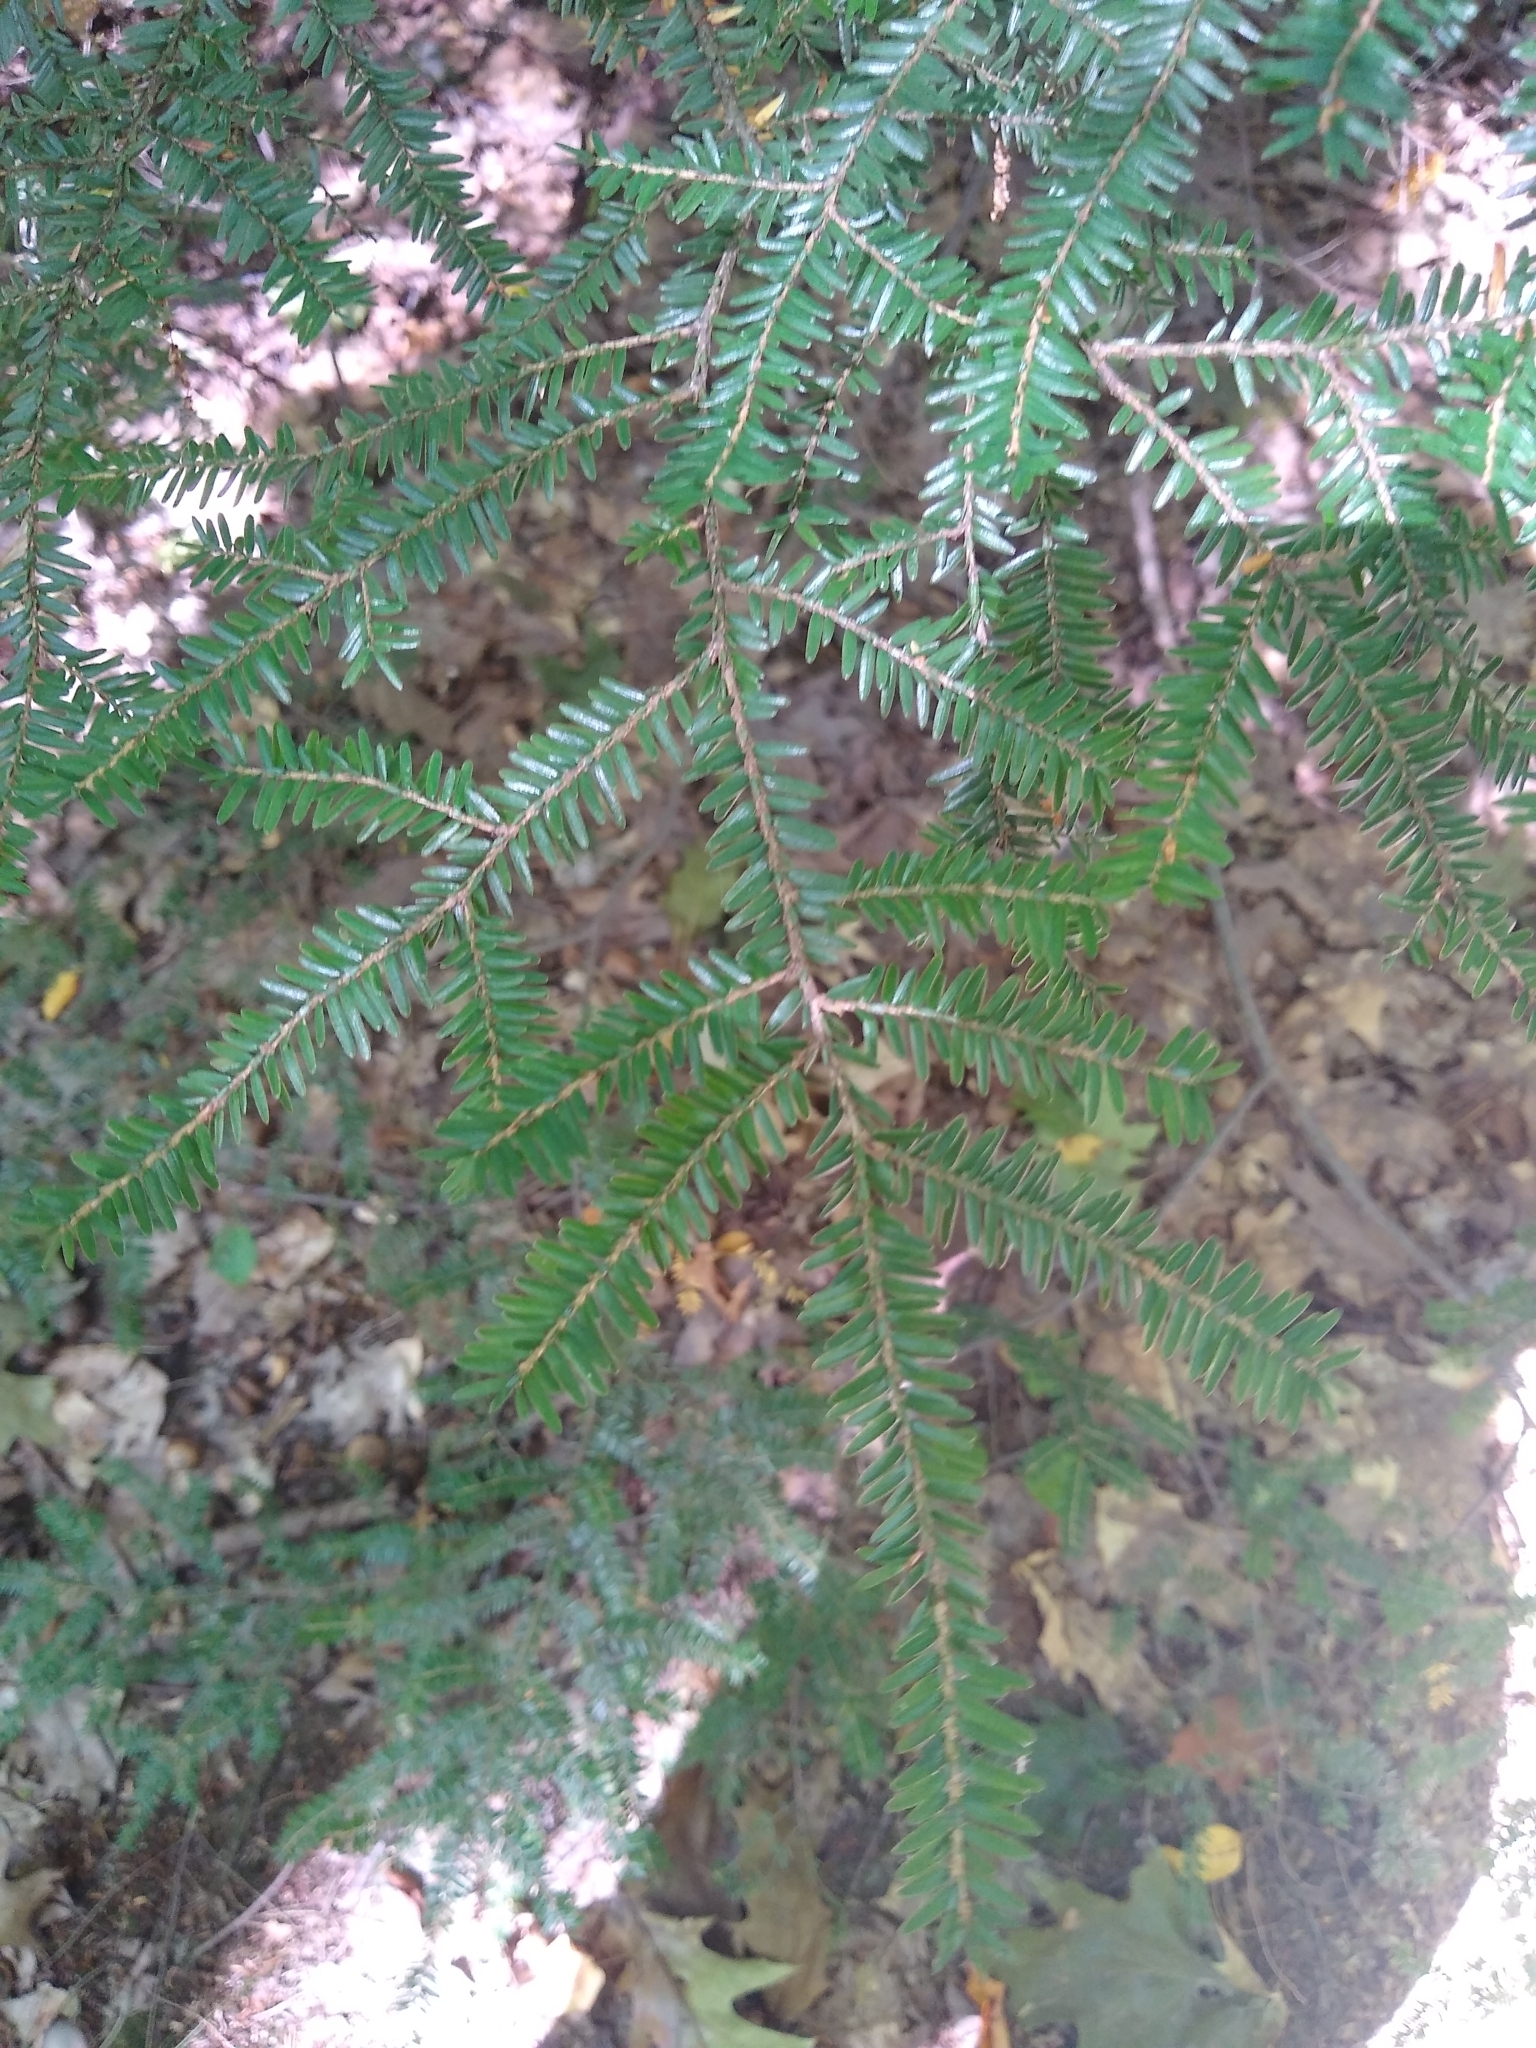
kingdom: Plantae
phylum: Tracheophyta
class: Pinopsida
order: Pinales
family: Pinaceae
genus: Tsuga
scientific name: Tsuga canadensis
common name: Eastern hemlock
